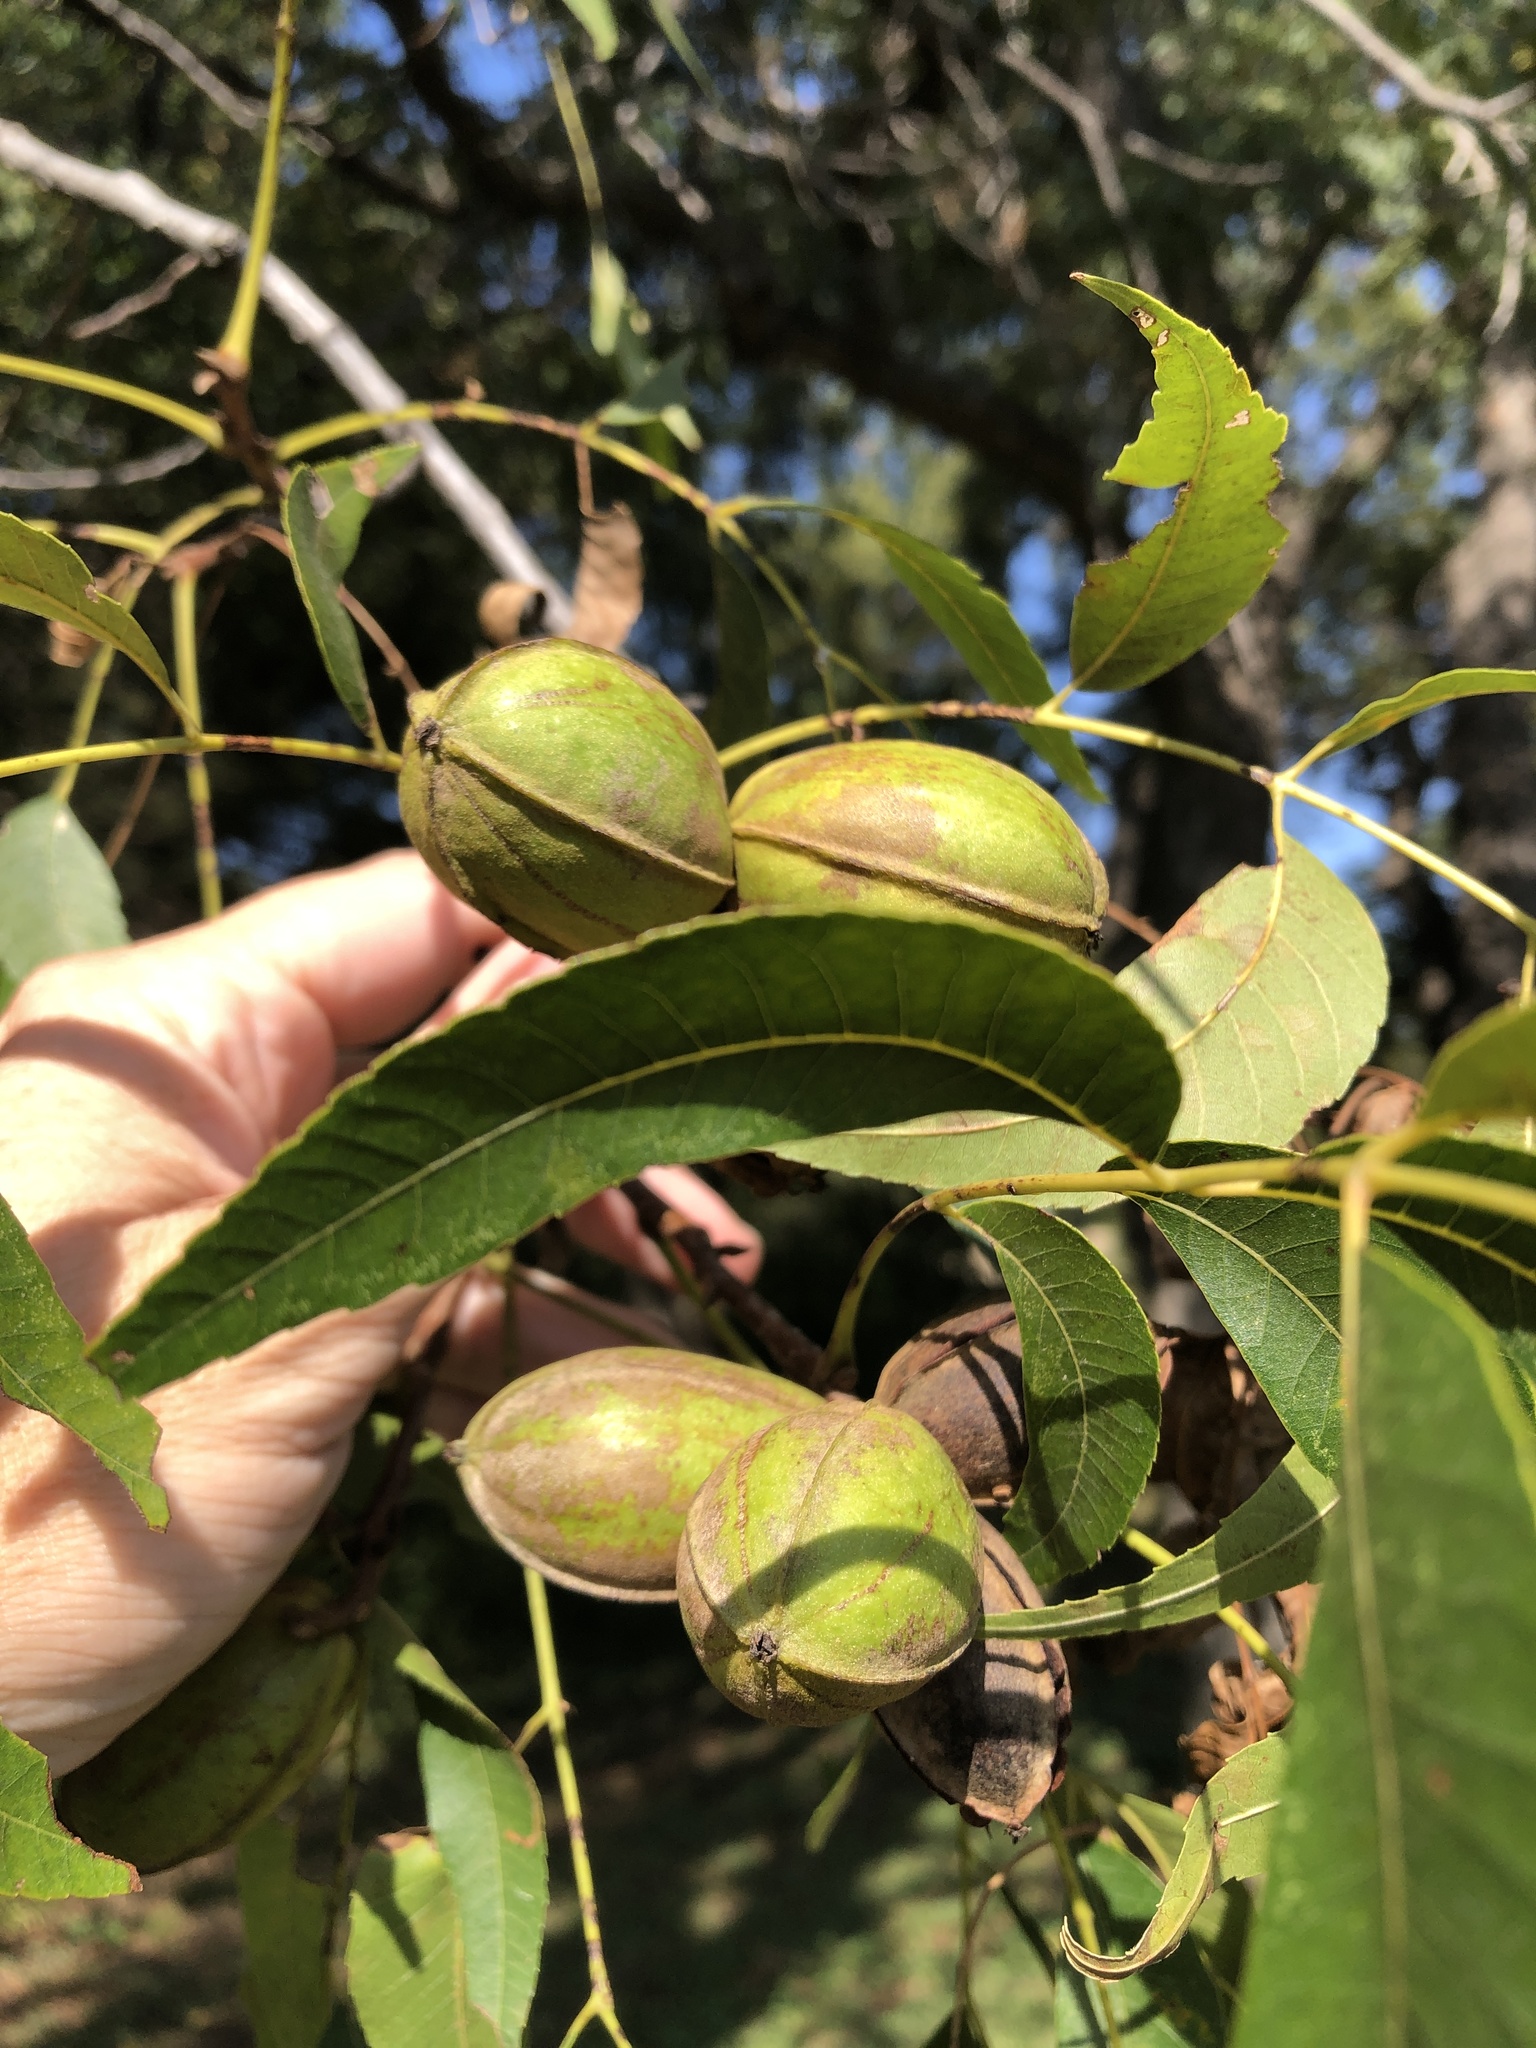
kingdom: Plantae
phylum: Tracheophyta
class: Magnoliopsida
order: Fagales
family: Juglandaceae
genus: Carya
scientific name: Carya illinoinensis
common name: Pecan
